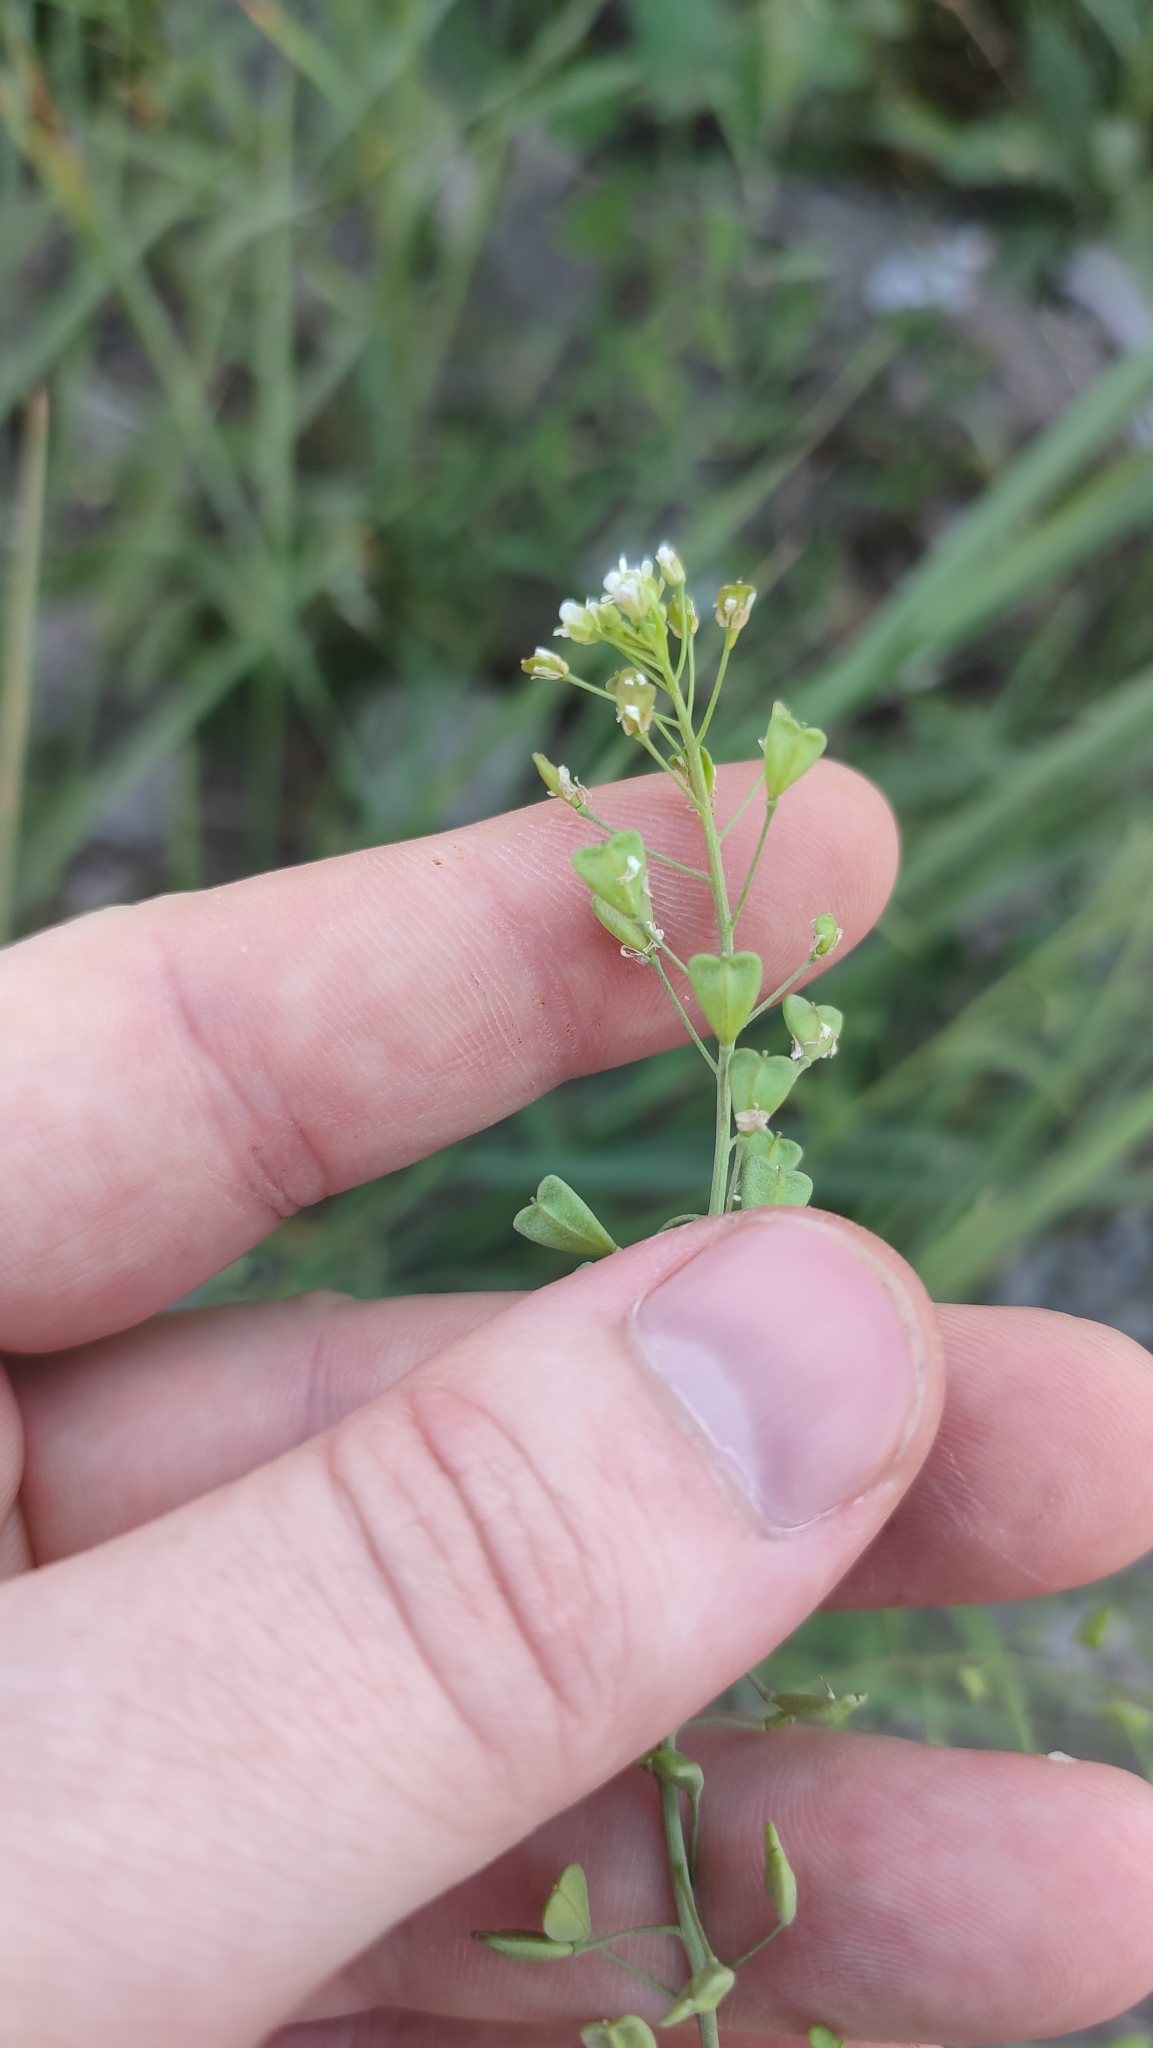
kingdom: Plantae
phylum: Tracheophyta
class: Magnoliopsida
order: Brassicales
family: Brassicaceae
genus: Capsella
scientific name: Capsella bursa-pastoris
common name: Shepherd's purse
